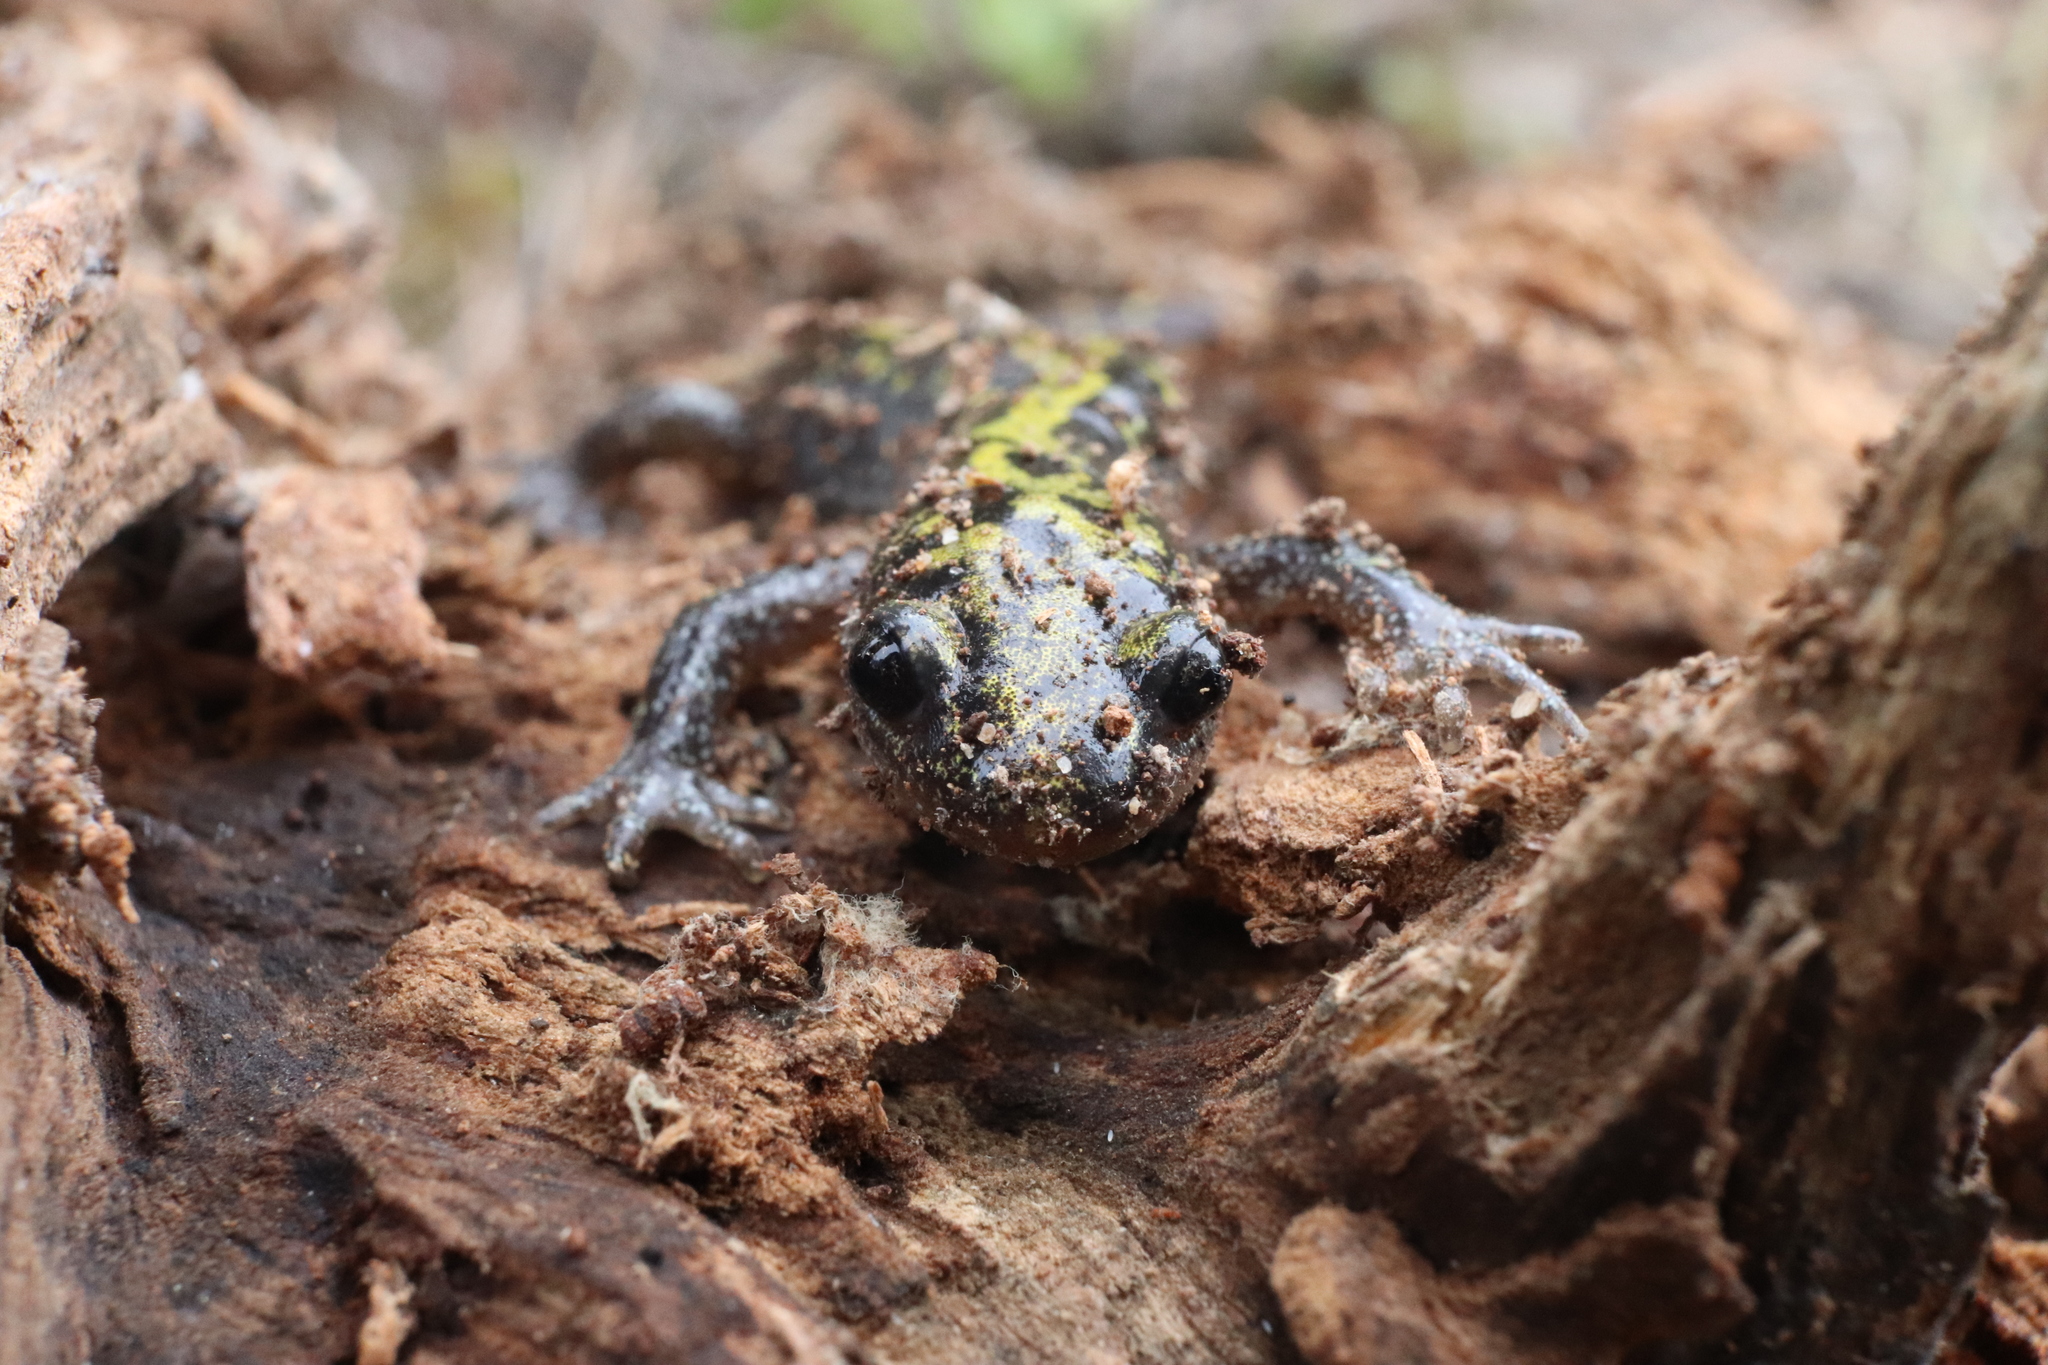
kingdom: Animalia
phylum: Chordata
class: Amphibia
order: Caudata
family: Ambystomatidae
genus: Ambystoma
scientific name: Ambystoma macrodactylum
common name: Long-toed salamander
